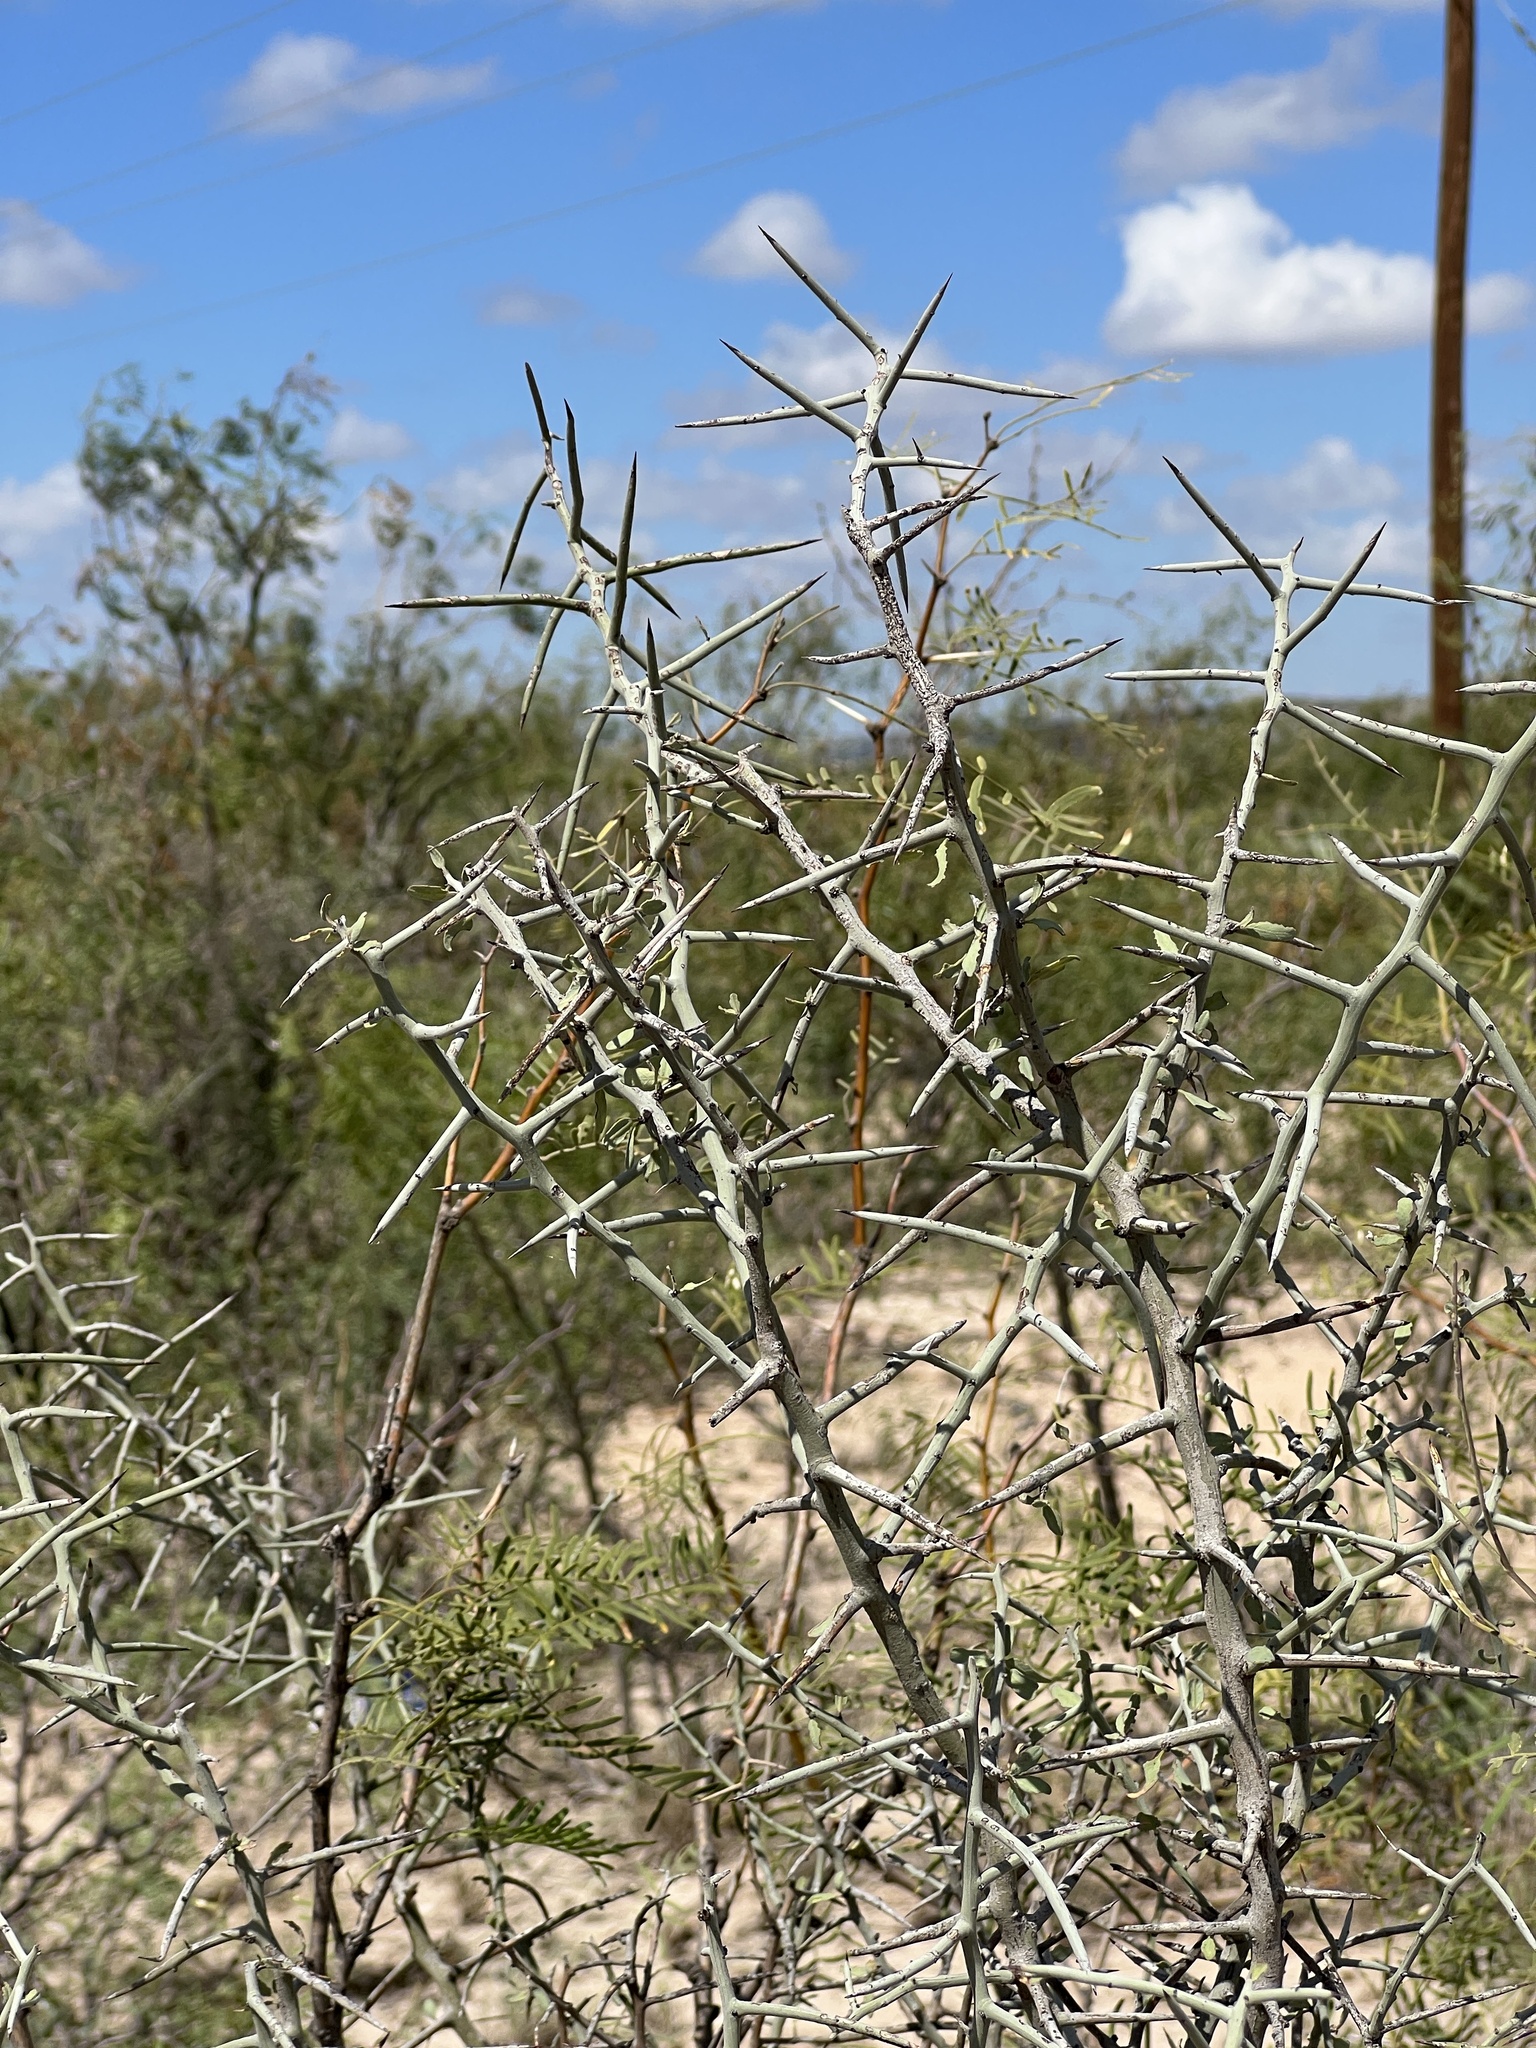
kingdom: Plantae
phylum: Tracheophyta
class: Magnoliopsida
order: Rosales
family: Rhamnaceae
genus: Sarcomphalus
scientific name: Sarcomphalus obtusifolius
